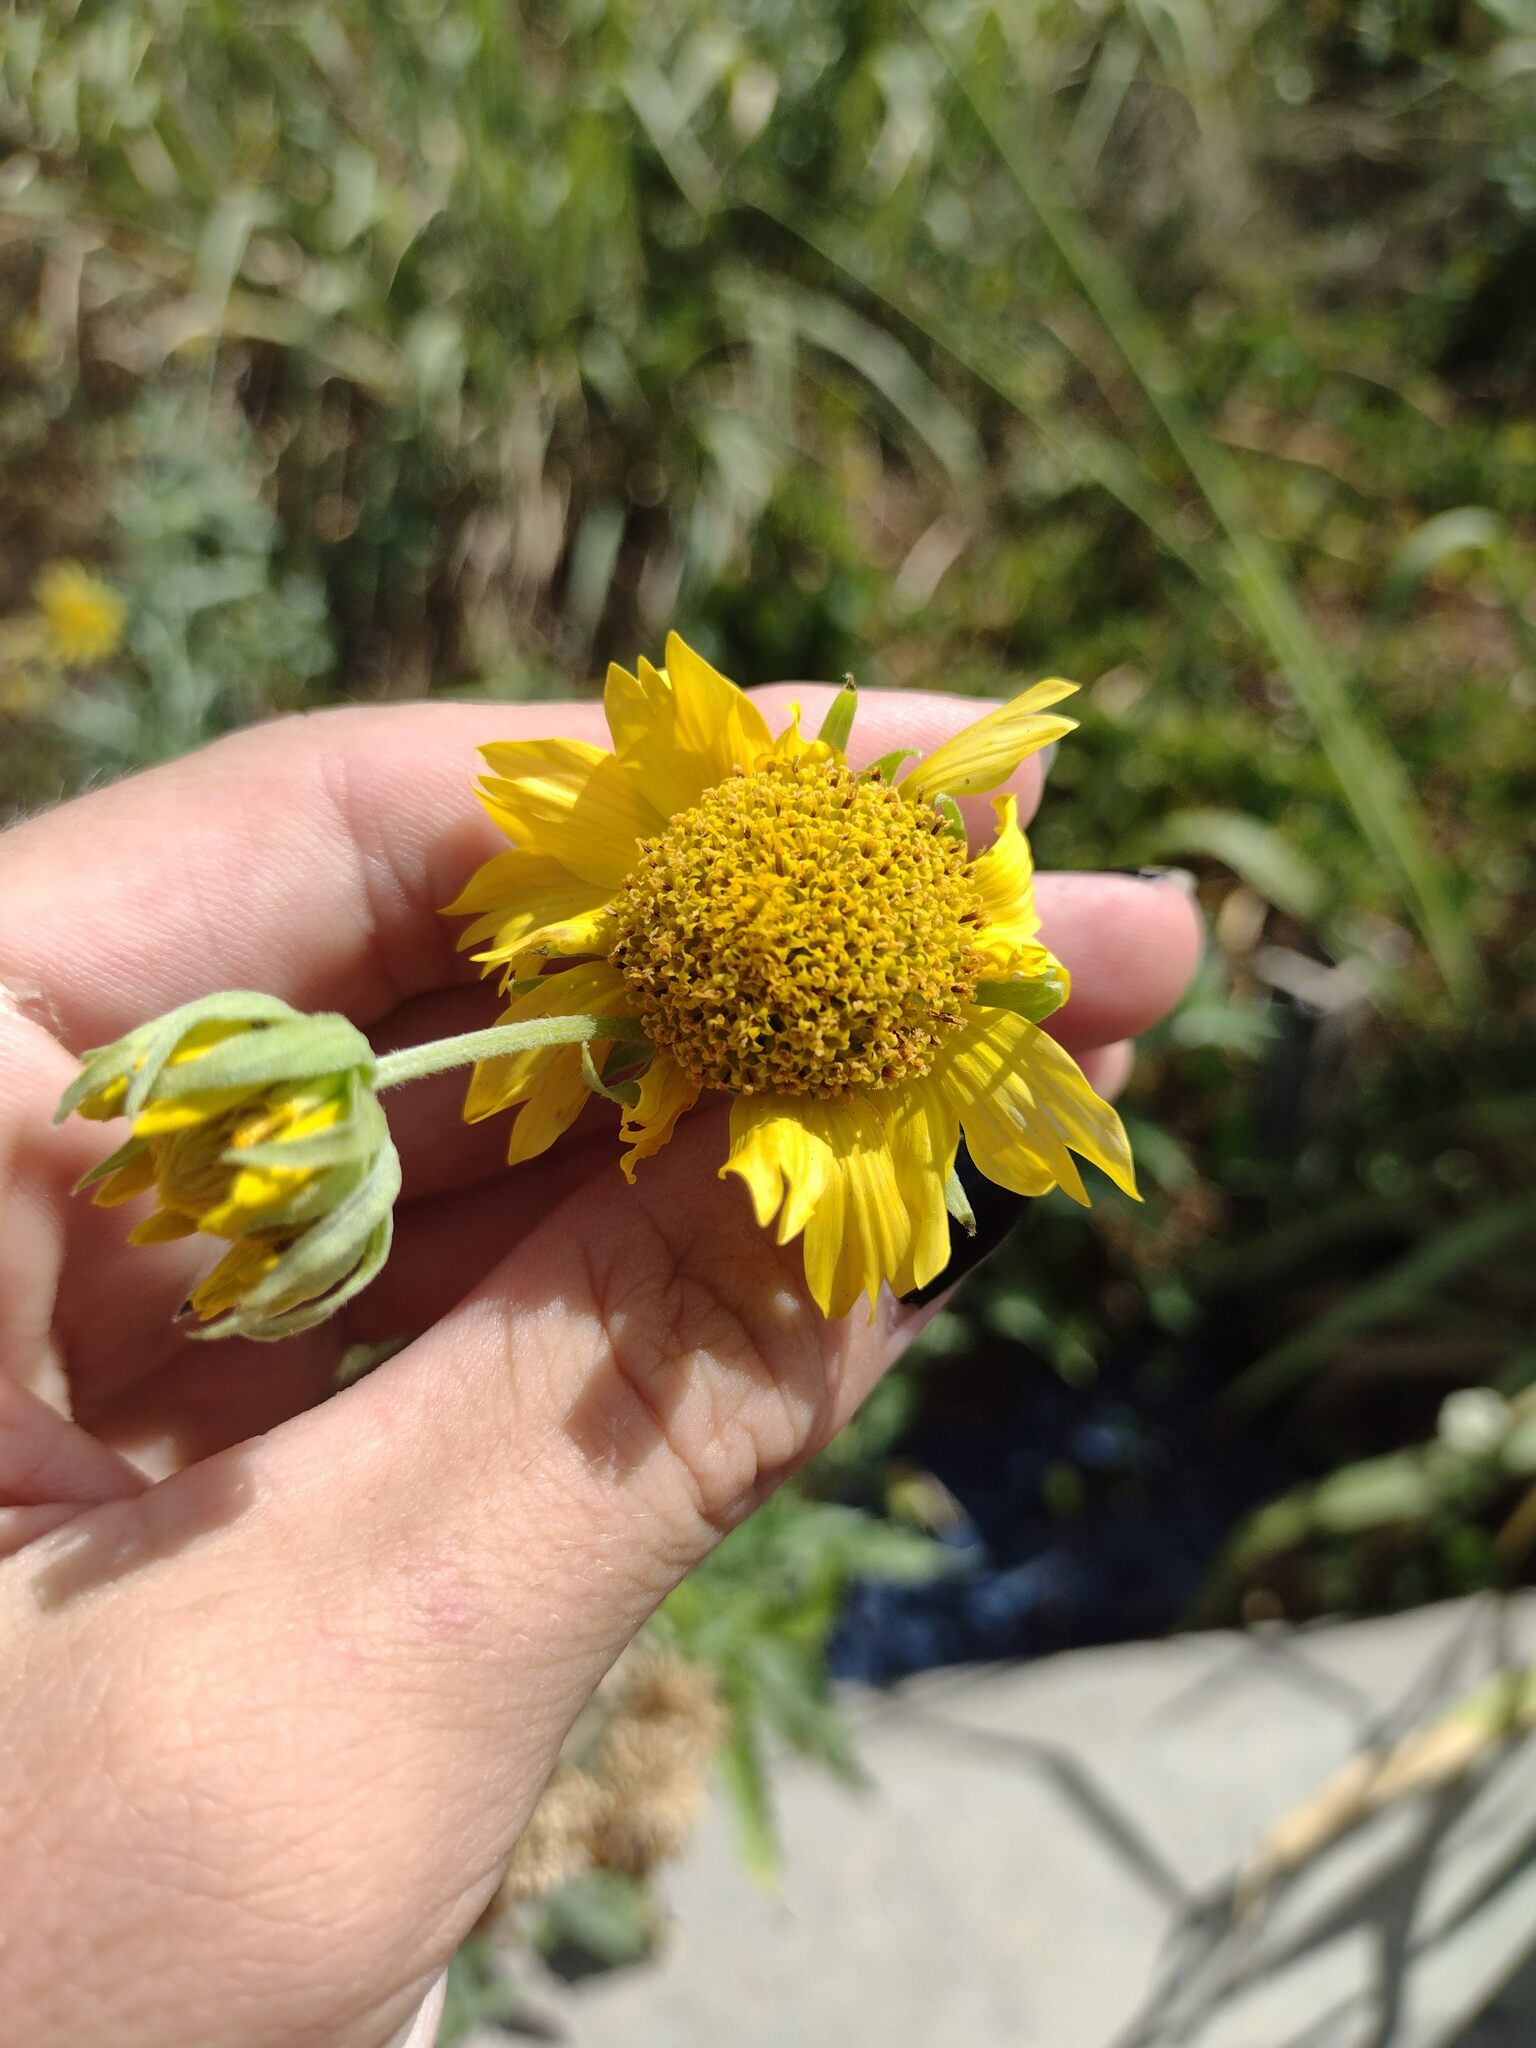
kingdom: Plantae
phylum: Tracheophyta
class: Magnoliopsida
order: Asterales
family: Asteraceae
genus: Verbesina
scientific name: Verbesina encelioides
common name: Golden crownbeard
